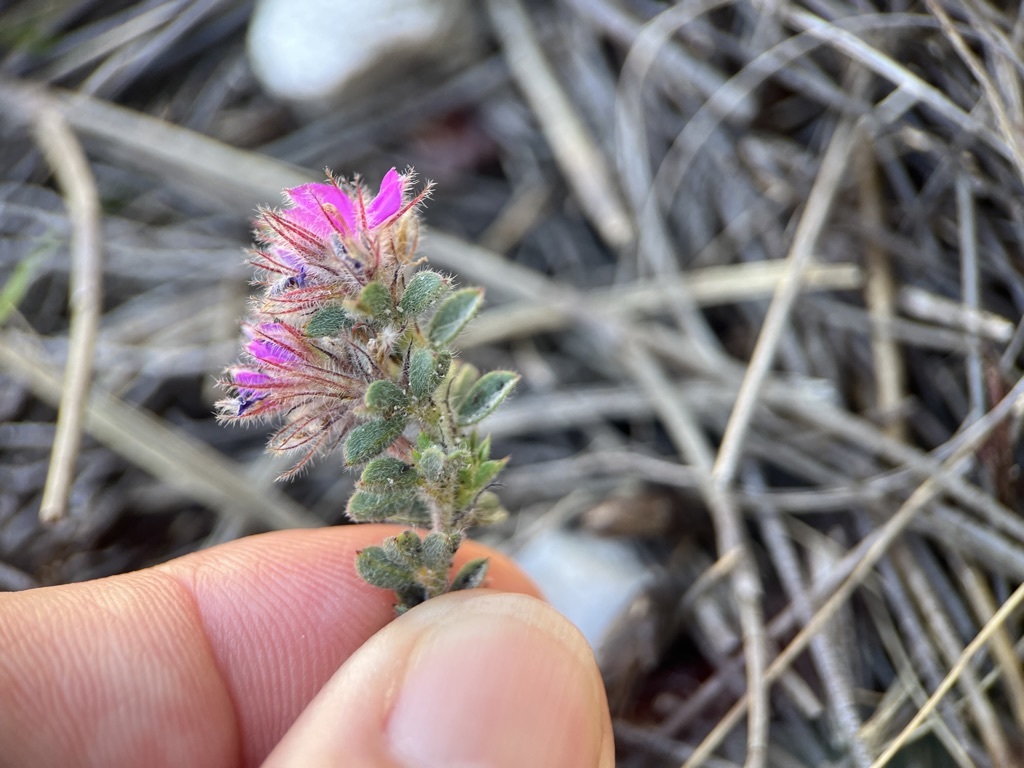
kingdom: Plantae
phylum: Tracheophyta
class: Magnoliopsida
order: Fabales
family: Fabaceae
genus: Indigofera
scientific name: Indigofera glomerata
